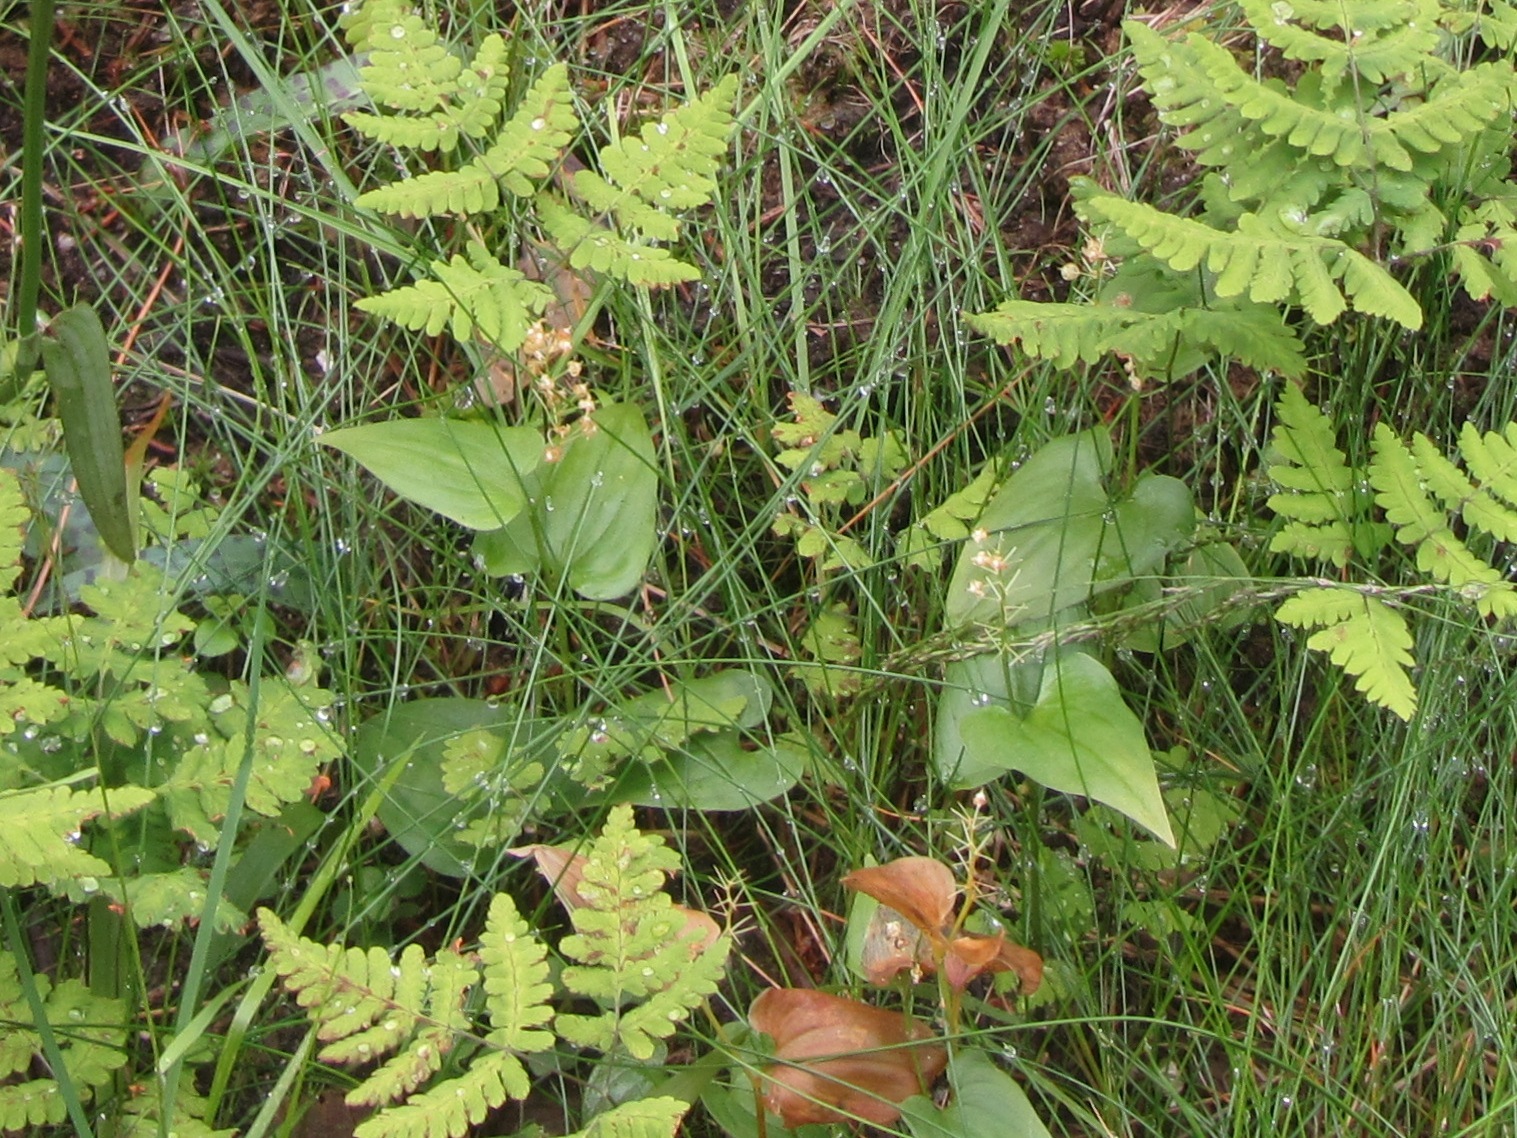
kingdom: Plantae
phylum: Tracheophyta
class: Liliopsida
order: Asparagales
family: Asparagaceae
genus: Maianthemum
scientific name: Maianthemum bifolium
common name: May lily
